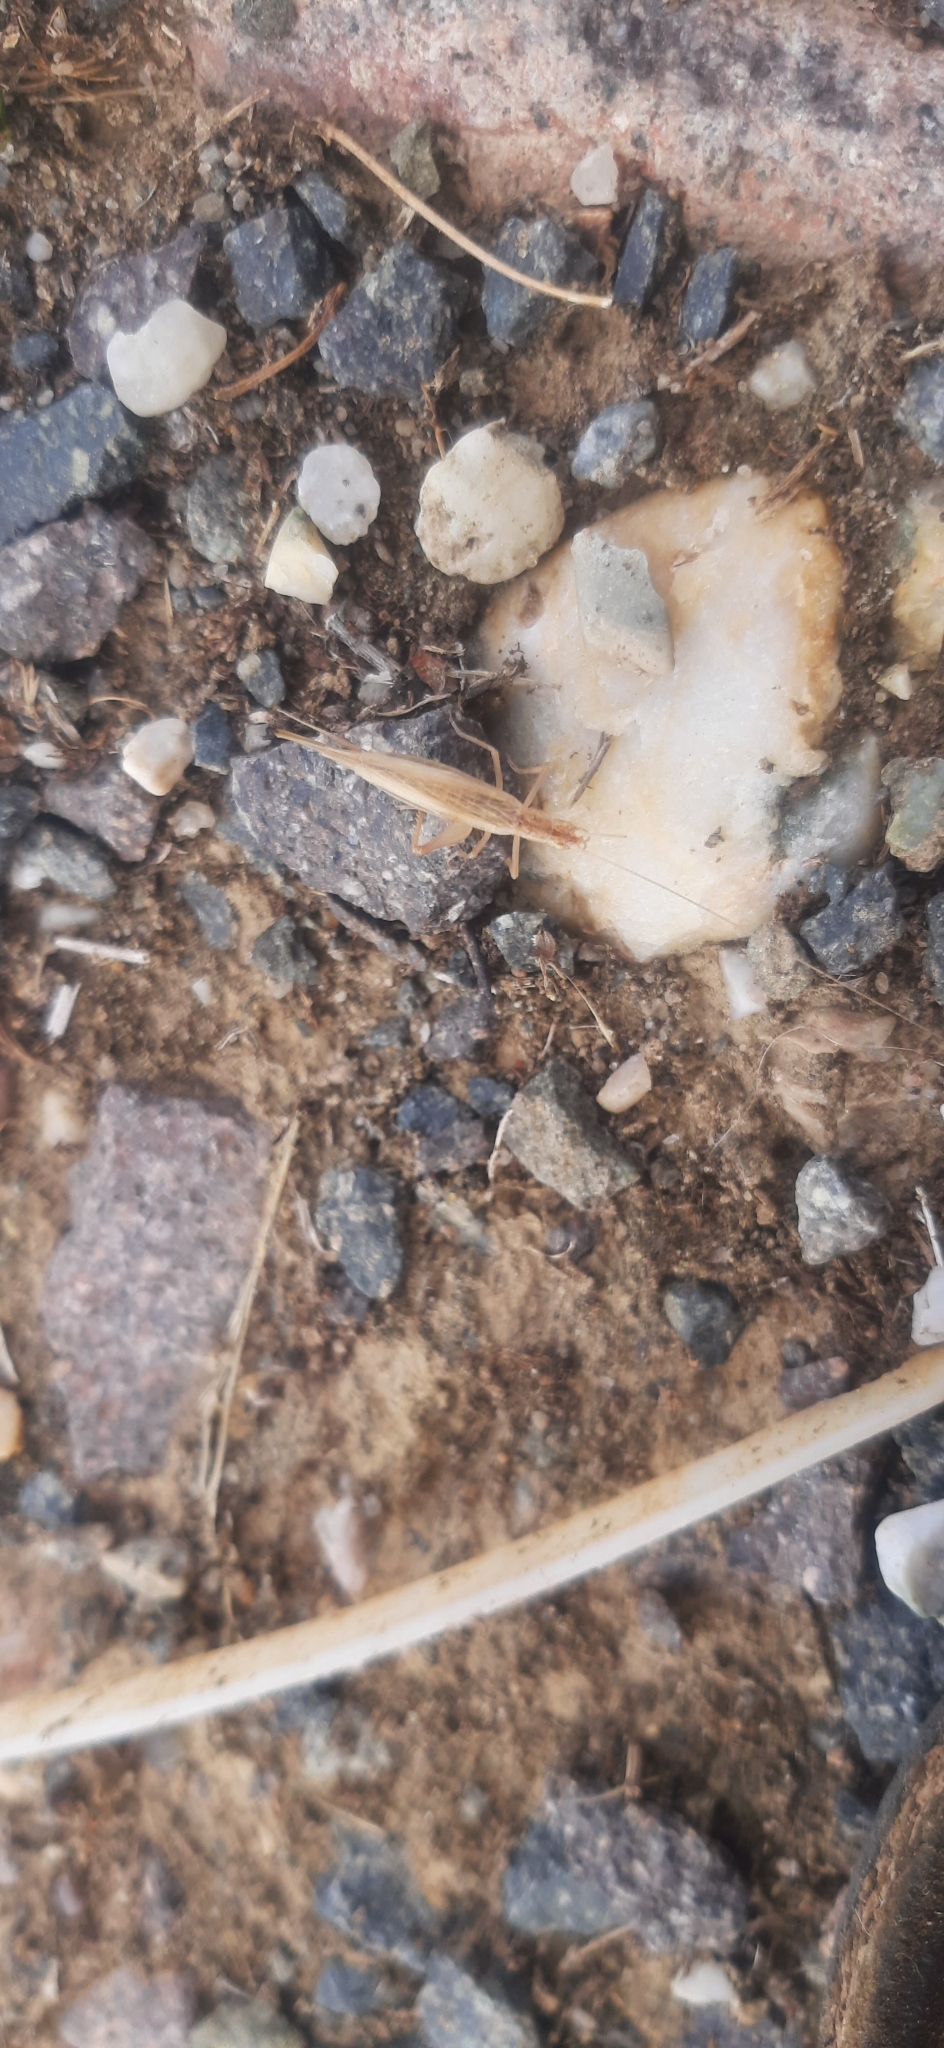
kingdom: Animalia
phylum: Arthropoda
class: Insecta
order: Orthoptera
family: Gryllidae
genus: Oecanthus
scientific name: Oecanthus pellucens
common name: Tree-cricket
